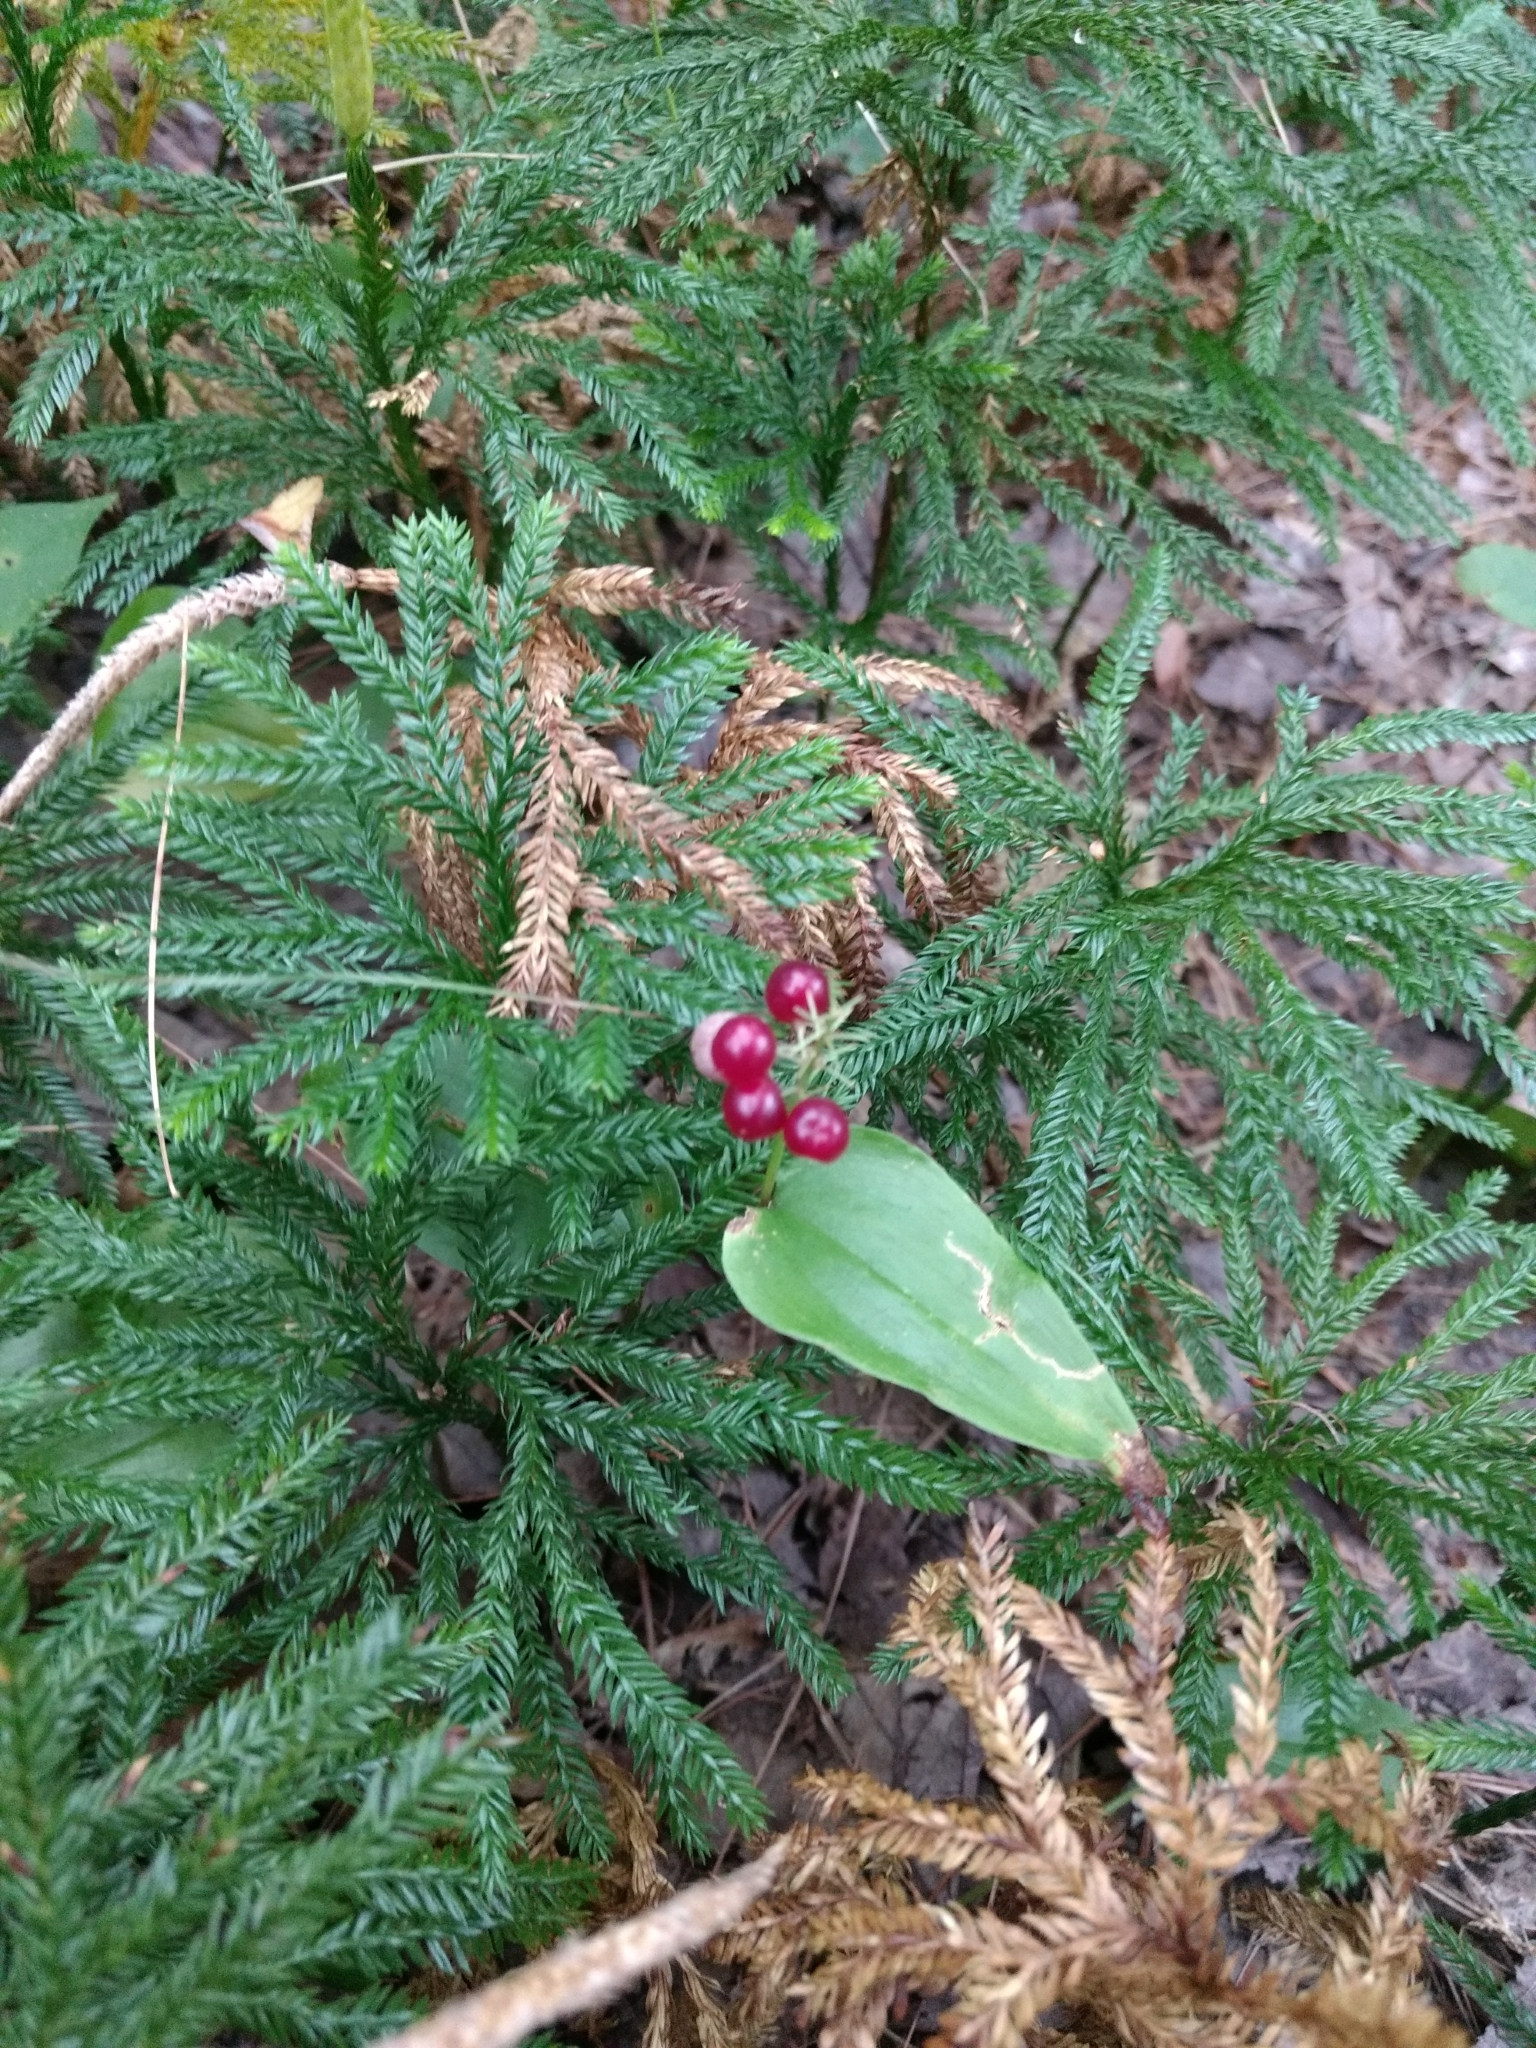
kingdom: Plantae
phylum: Tracheophyta
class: Liliopsida
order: Asparagales
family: Asparagaceae
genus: Maianthemum
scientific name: Maianthemum canadense
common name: False lily-of-the-valley
